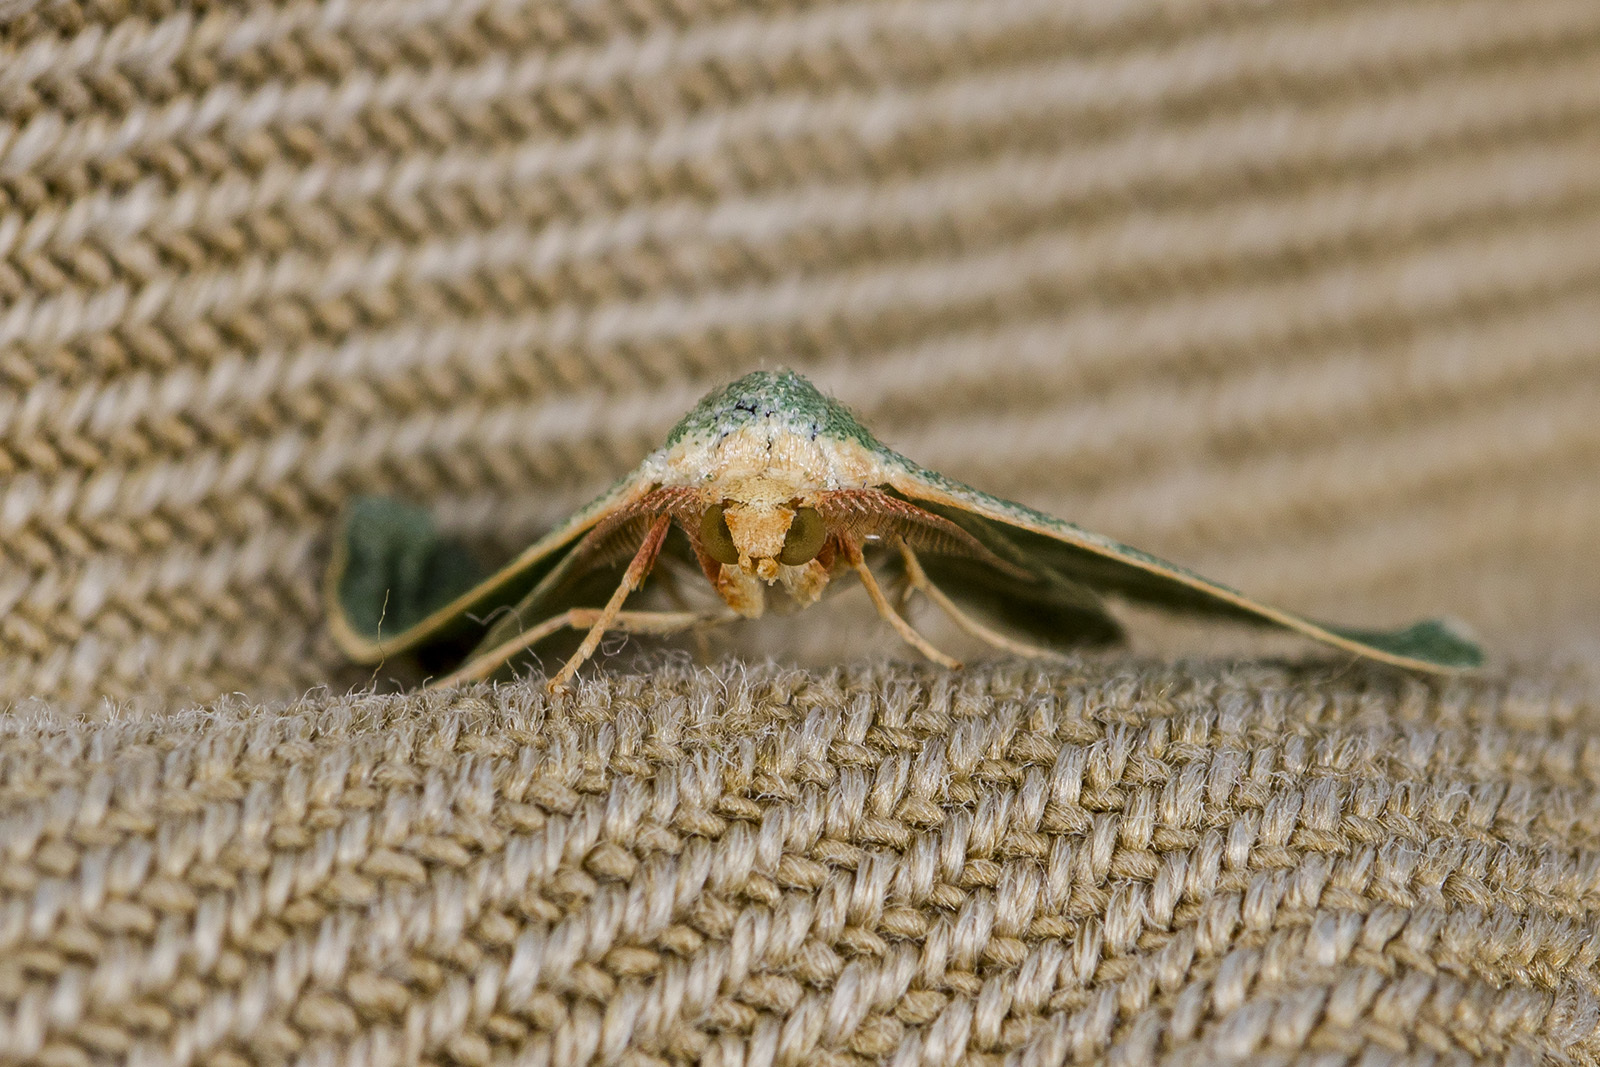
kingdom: Animalia
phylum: Arthropoda
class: Insecta
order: Lepidoptera
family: Geometridae
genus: Microloxia
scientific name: Microloxia herbaria
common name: Herb emerald
